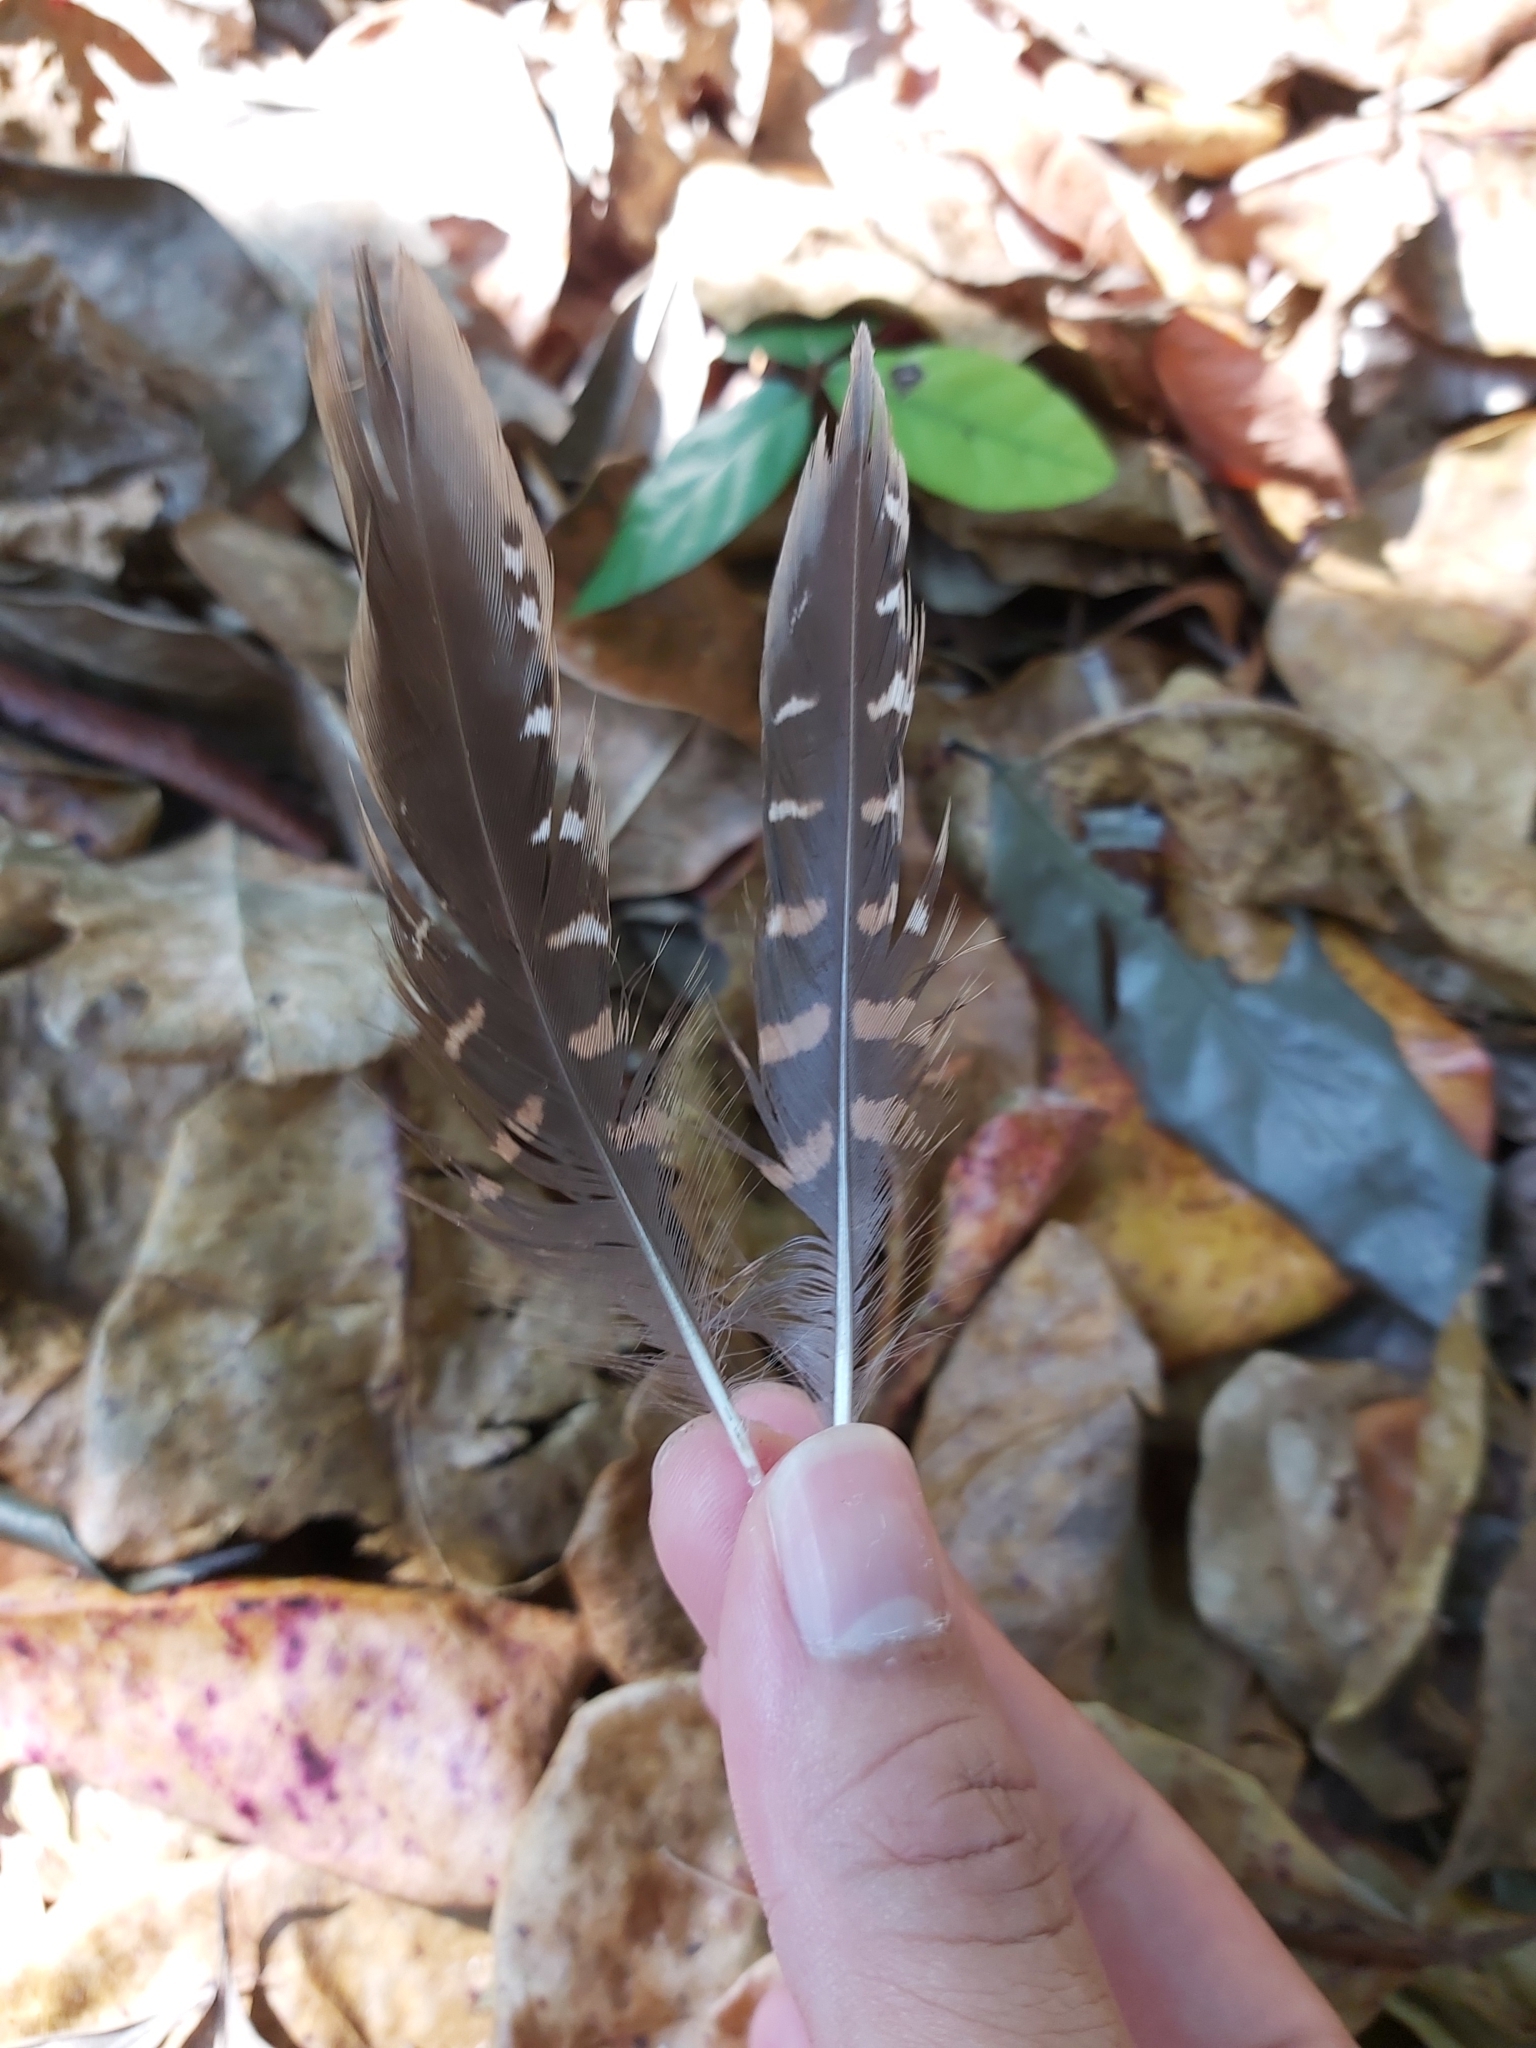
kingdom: Animalia
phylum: Chordata
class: Aves
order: Gruiformes
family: Rallidae
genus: Gallirallus
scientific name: Gallirallus philippensis
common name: Buff-banded rail
